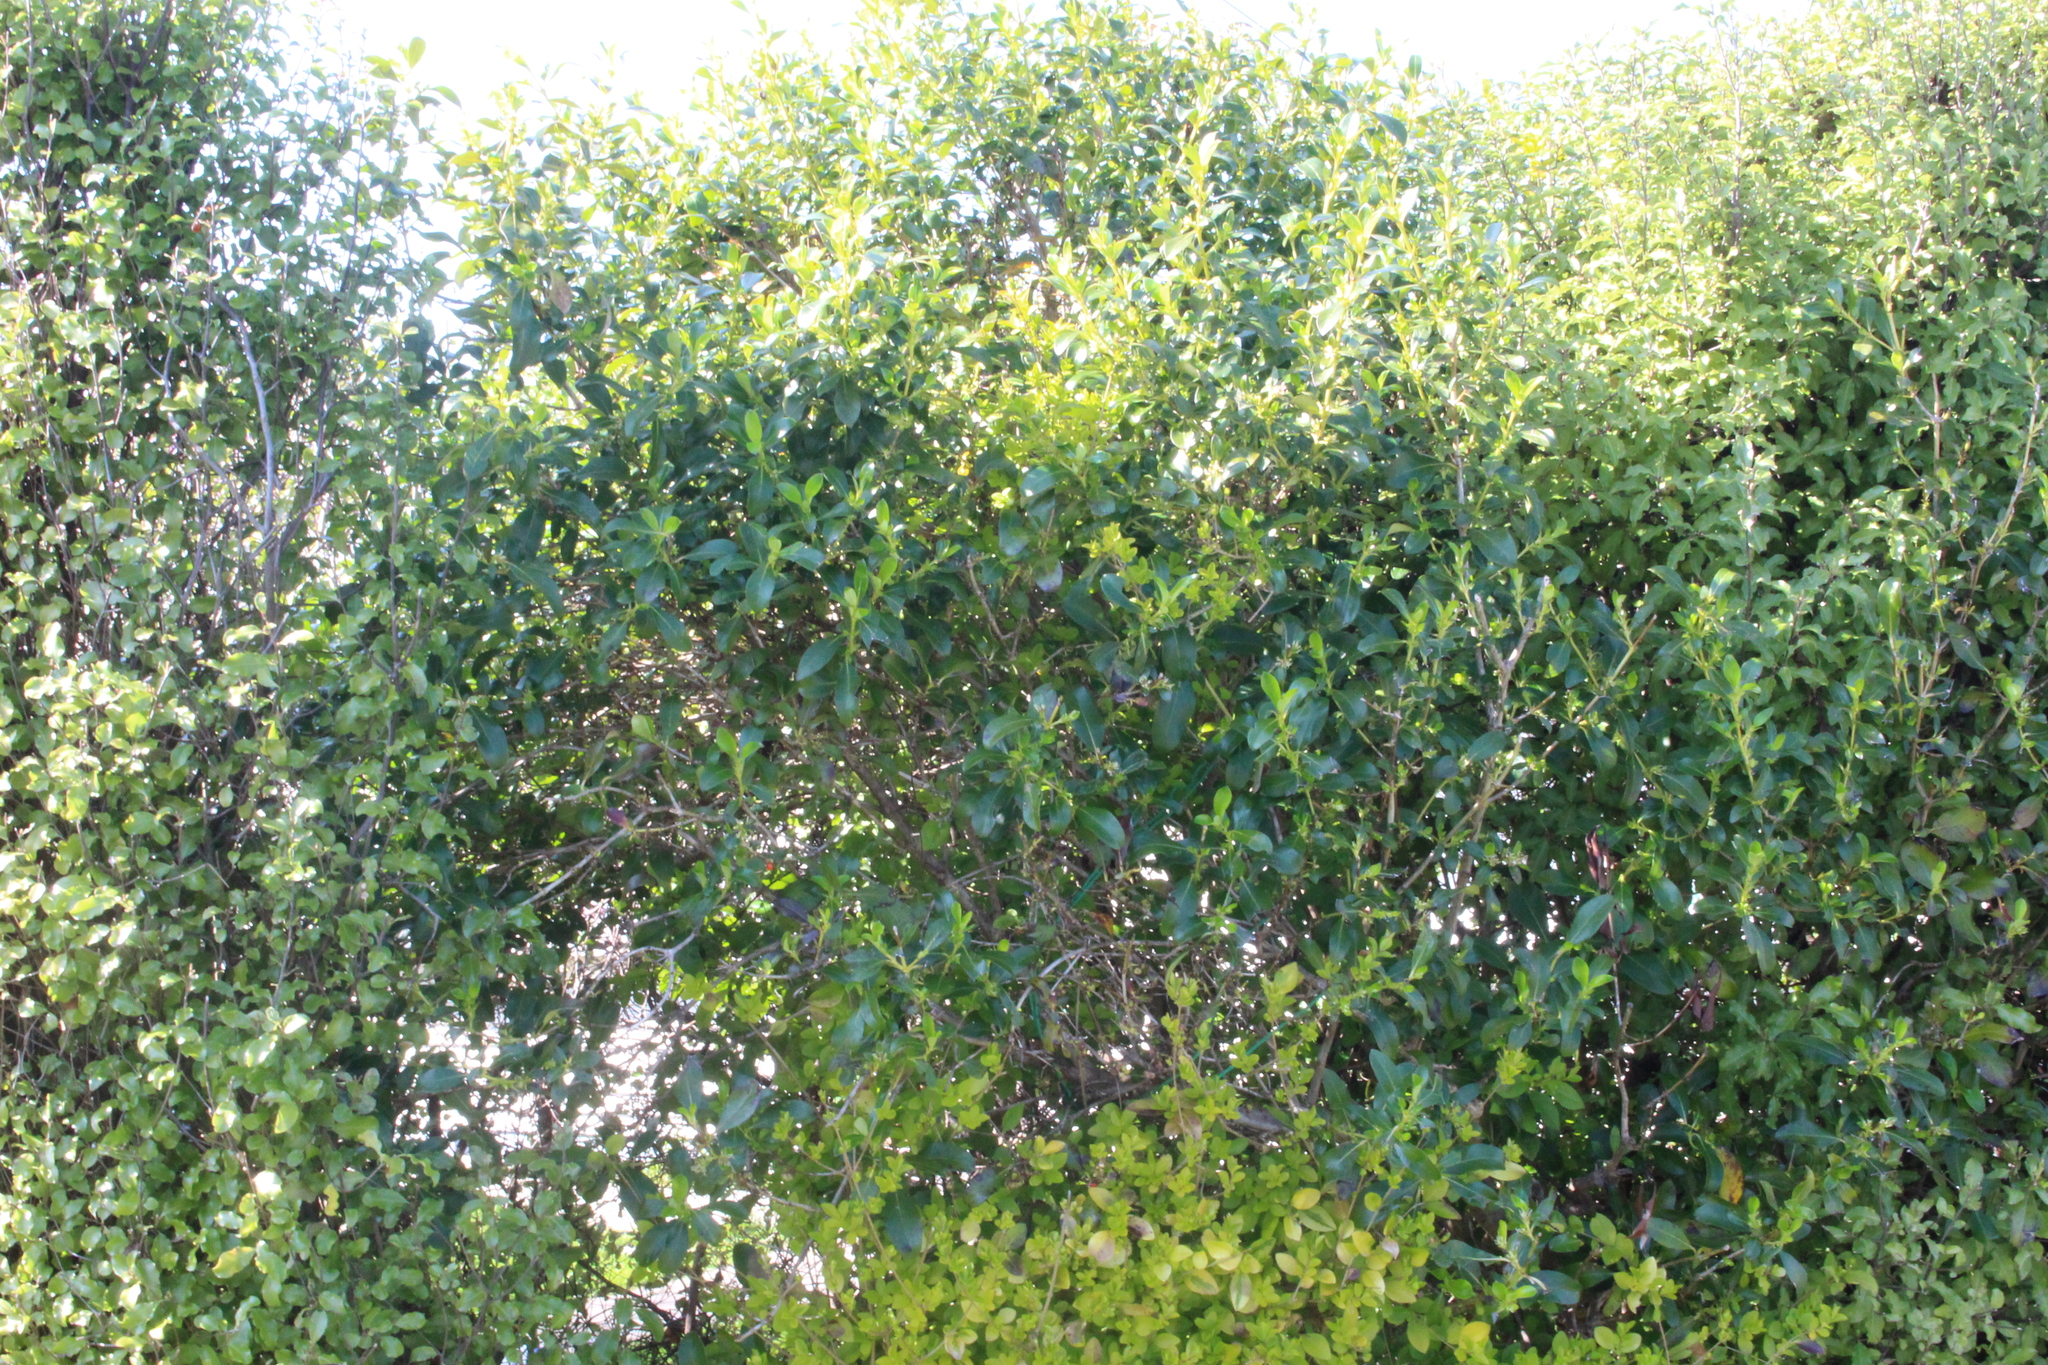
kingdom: Plantae
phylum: Tracheophyta
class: Magnoliopsida
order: Gentianales
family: Rubiaceae
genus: Coprosma
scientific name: Coprosma robusta
